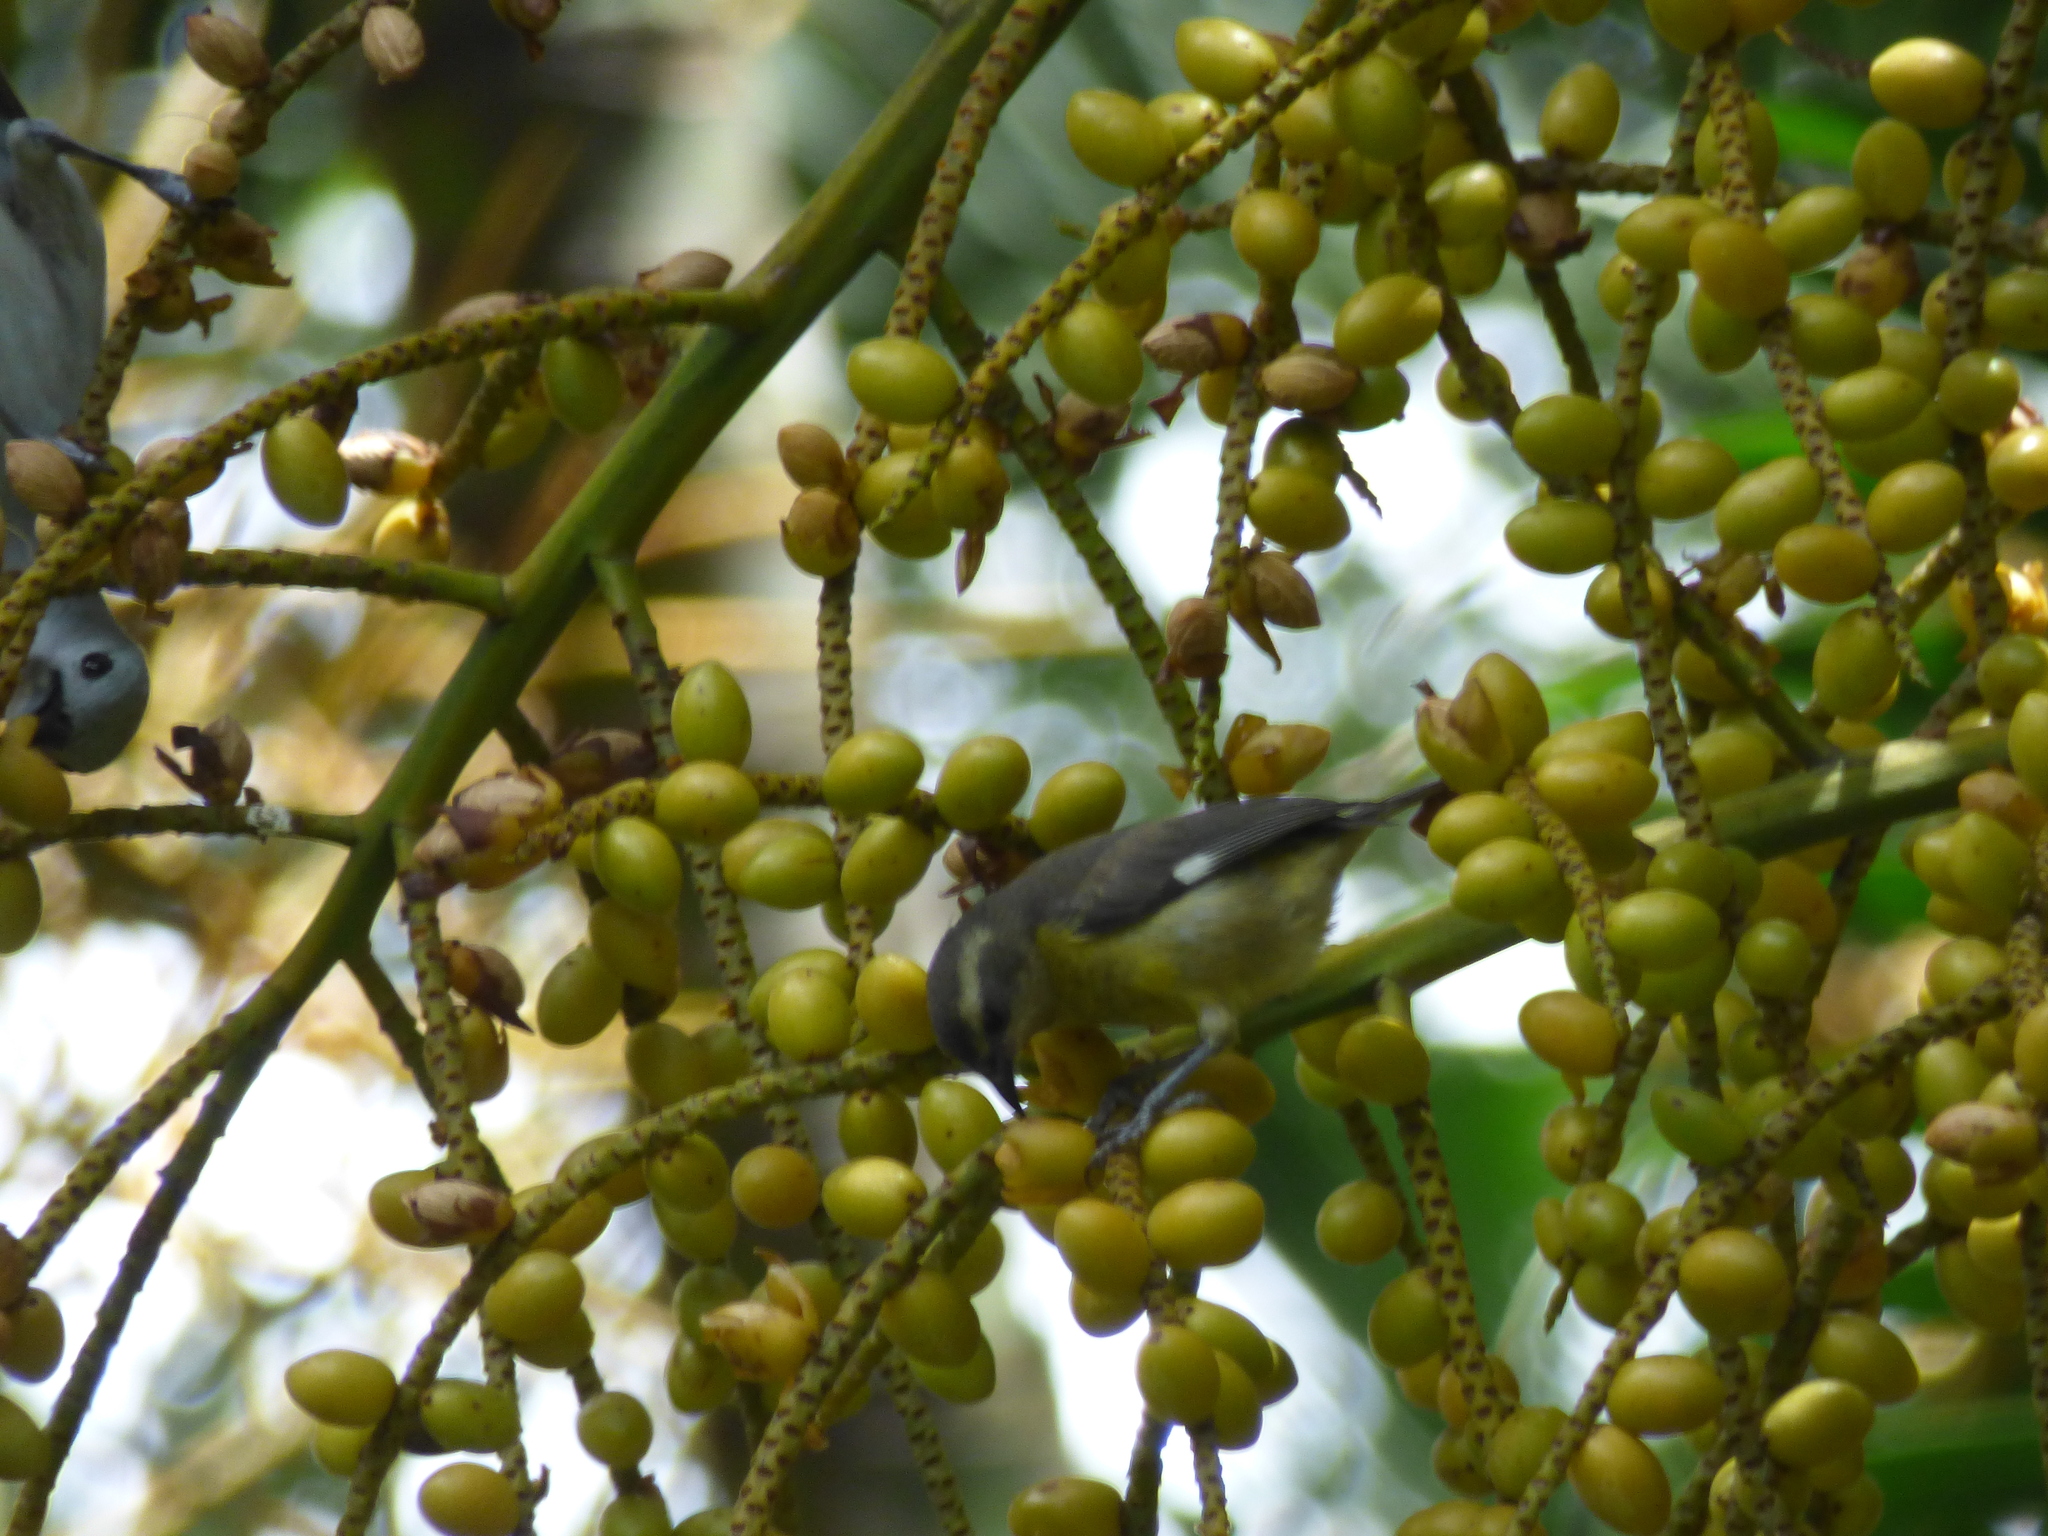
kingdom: Animalia
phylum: Chordata
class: Aves
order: Passeriformes
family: Thraupidae
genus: Coereba
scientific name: Coereba flaveola
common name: Bananaquit
